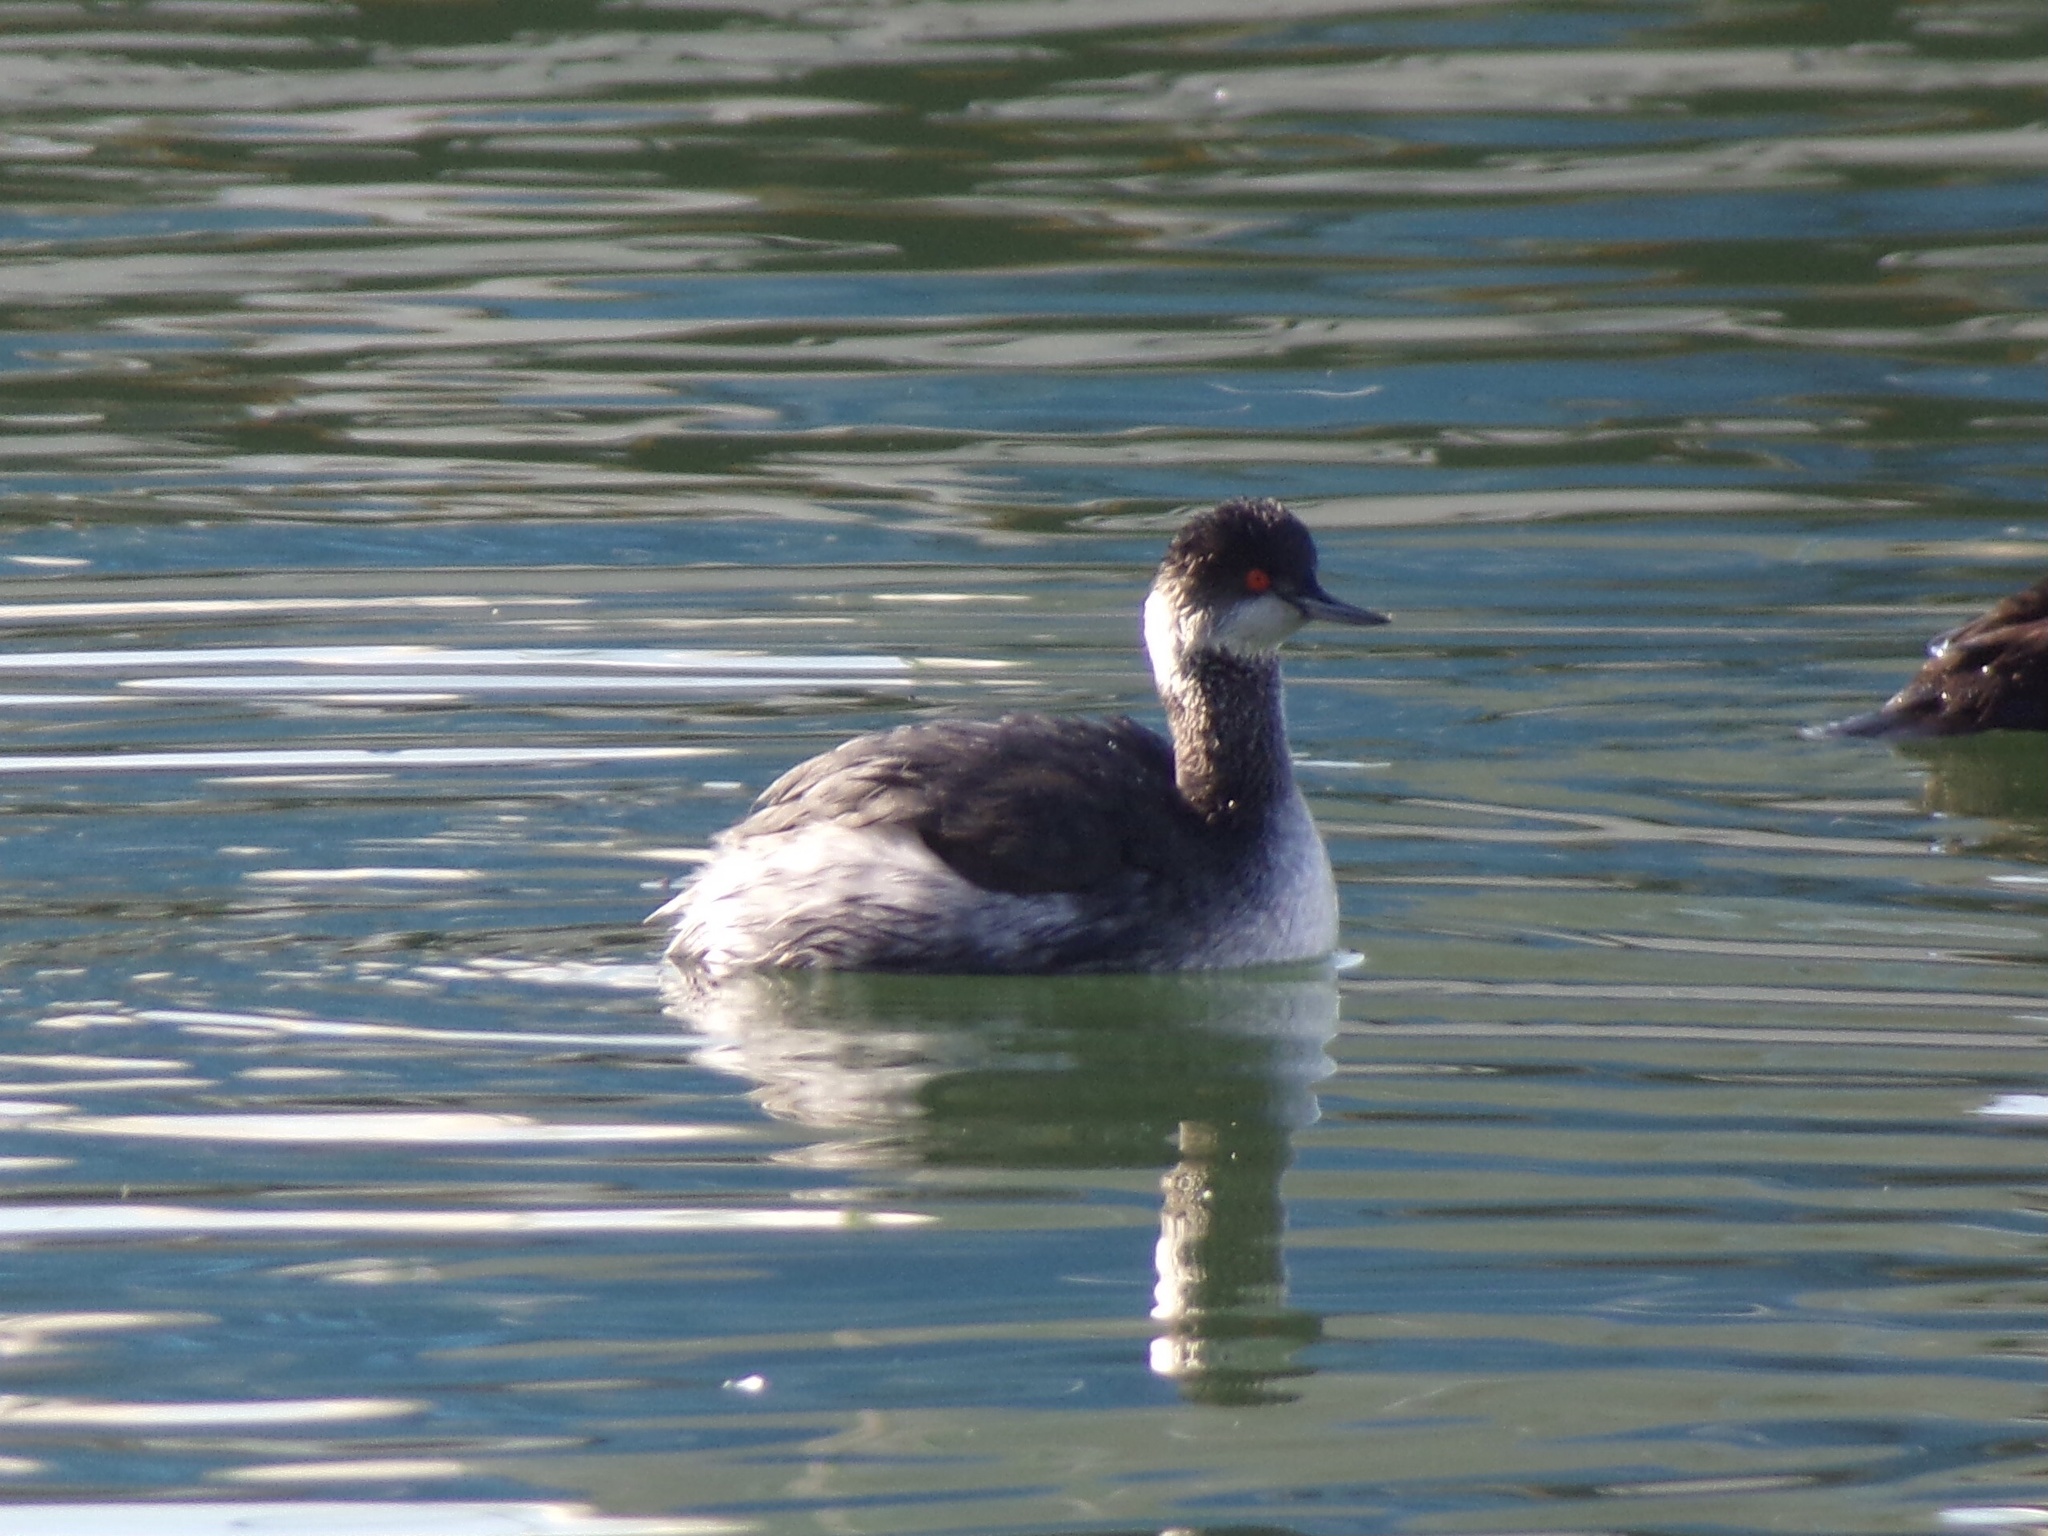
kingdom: Animalia
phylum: Chordata
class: Aves
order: Podicipediformes
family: Podicipedidae
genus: Podiceps
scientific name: Podiceps nigricollis
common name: Black-necked grebe
